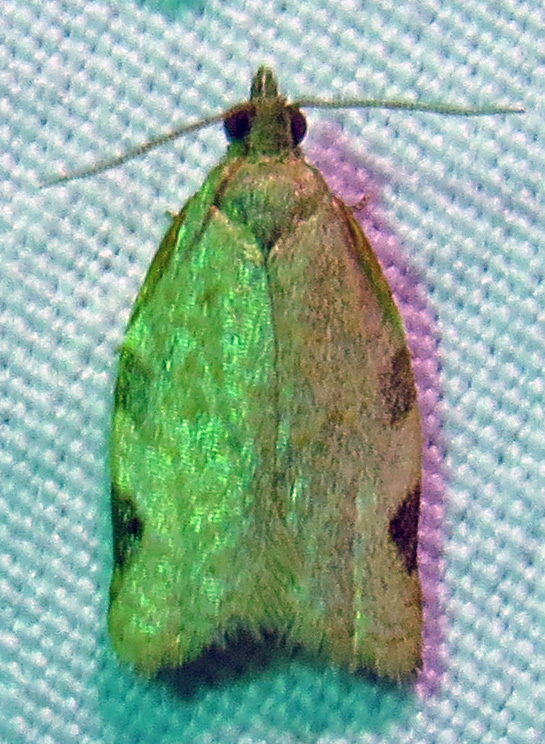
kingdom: Animalia
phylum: Arthropoda
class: Insecta
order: Lepidoptera
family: Tortricidae
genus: Clepsis
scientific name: Clepsis virescana
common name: Greenish apple moth
